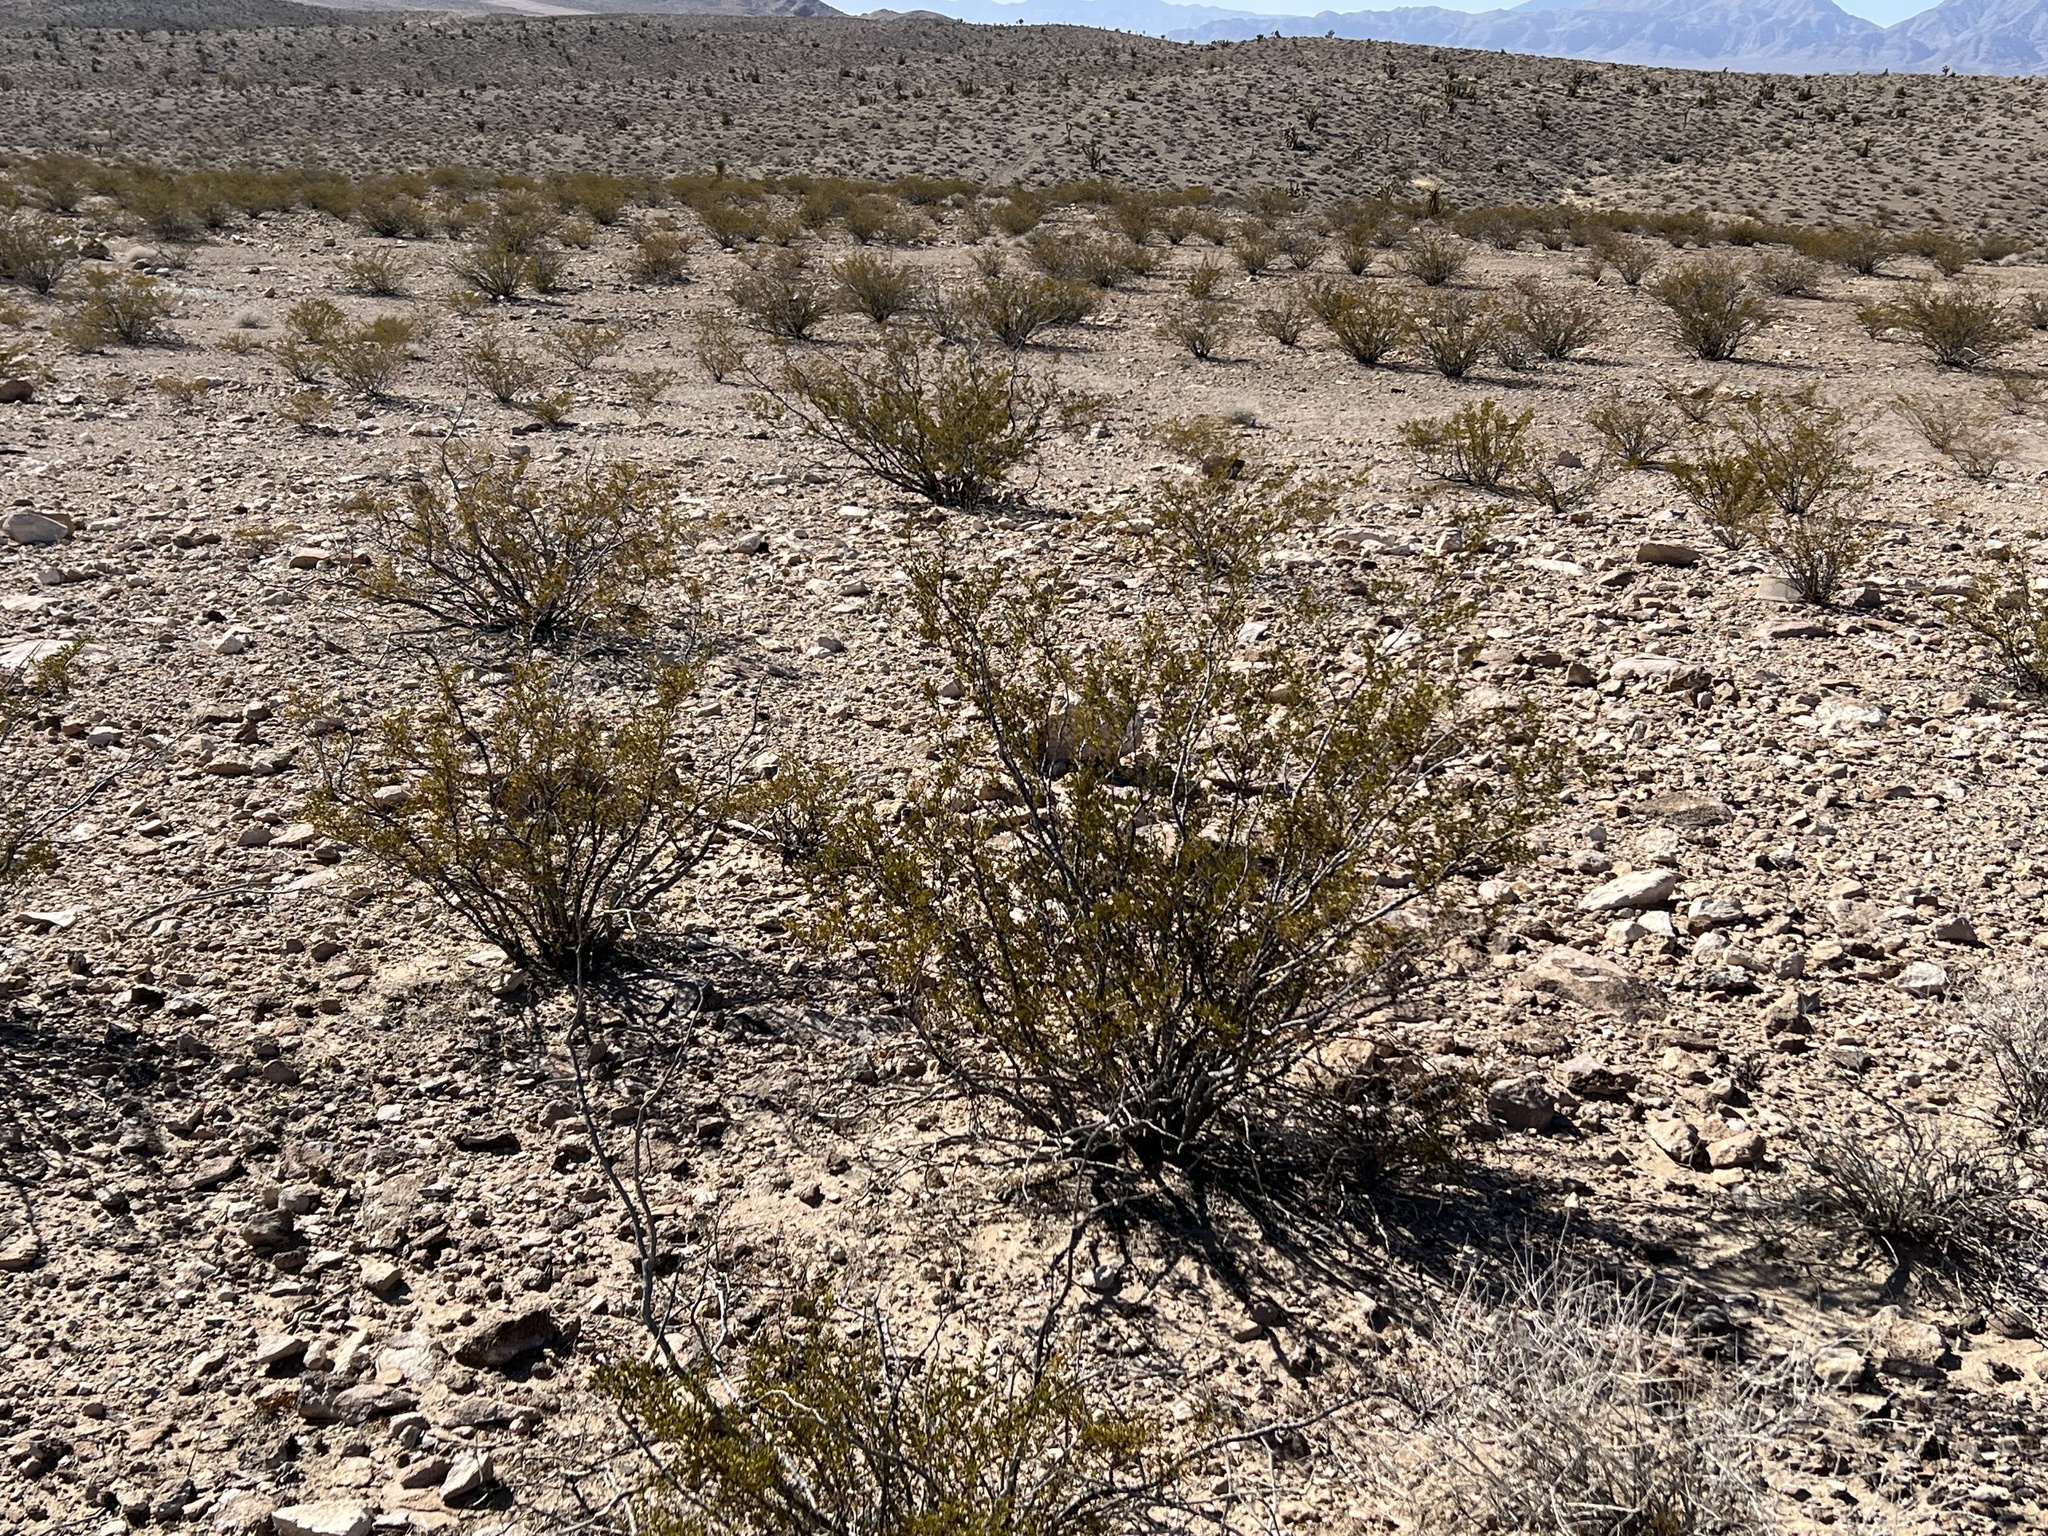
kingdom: Plantae
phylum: Tracheophyta
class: Magnoliopsida
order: Zygophyllales
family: Zygophyllaceae
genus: Larrea
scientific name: Larrea tridentata
